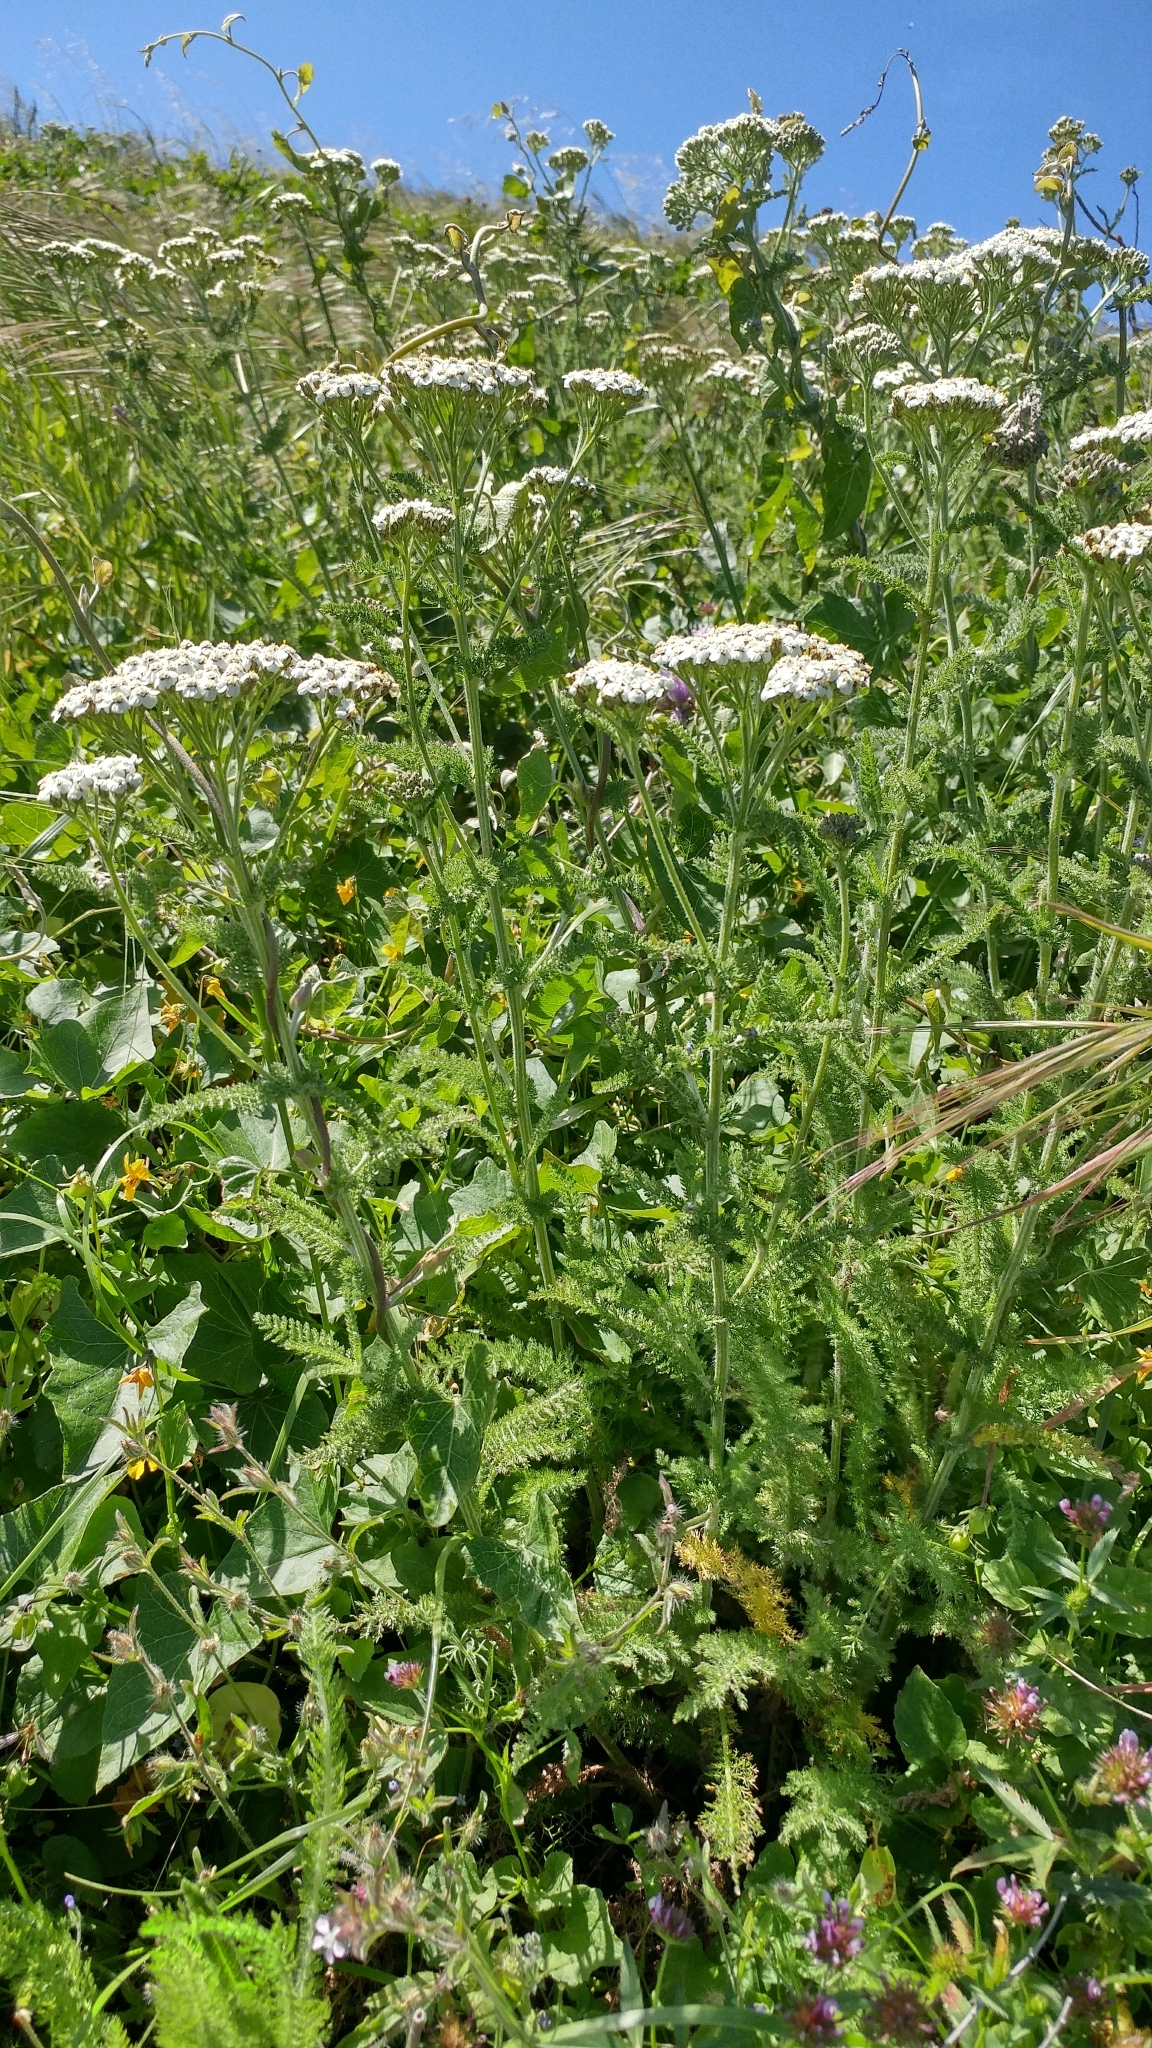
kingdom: Plantae
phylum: Tracheophyta
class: Magnoliopsida
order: Asterales
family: Asteraceae
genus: Achillea
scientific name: Achillea millefolium
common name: Yarrow
